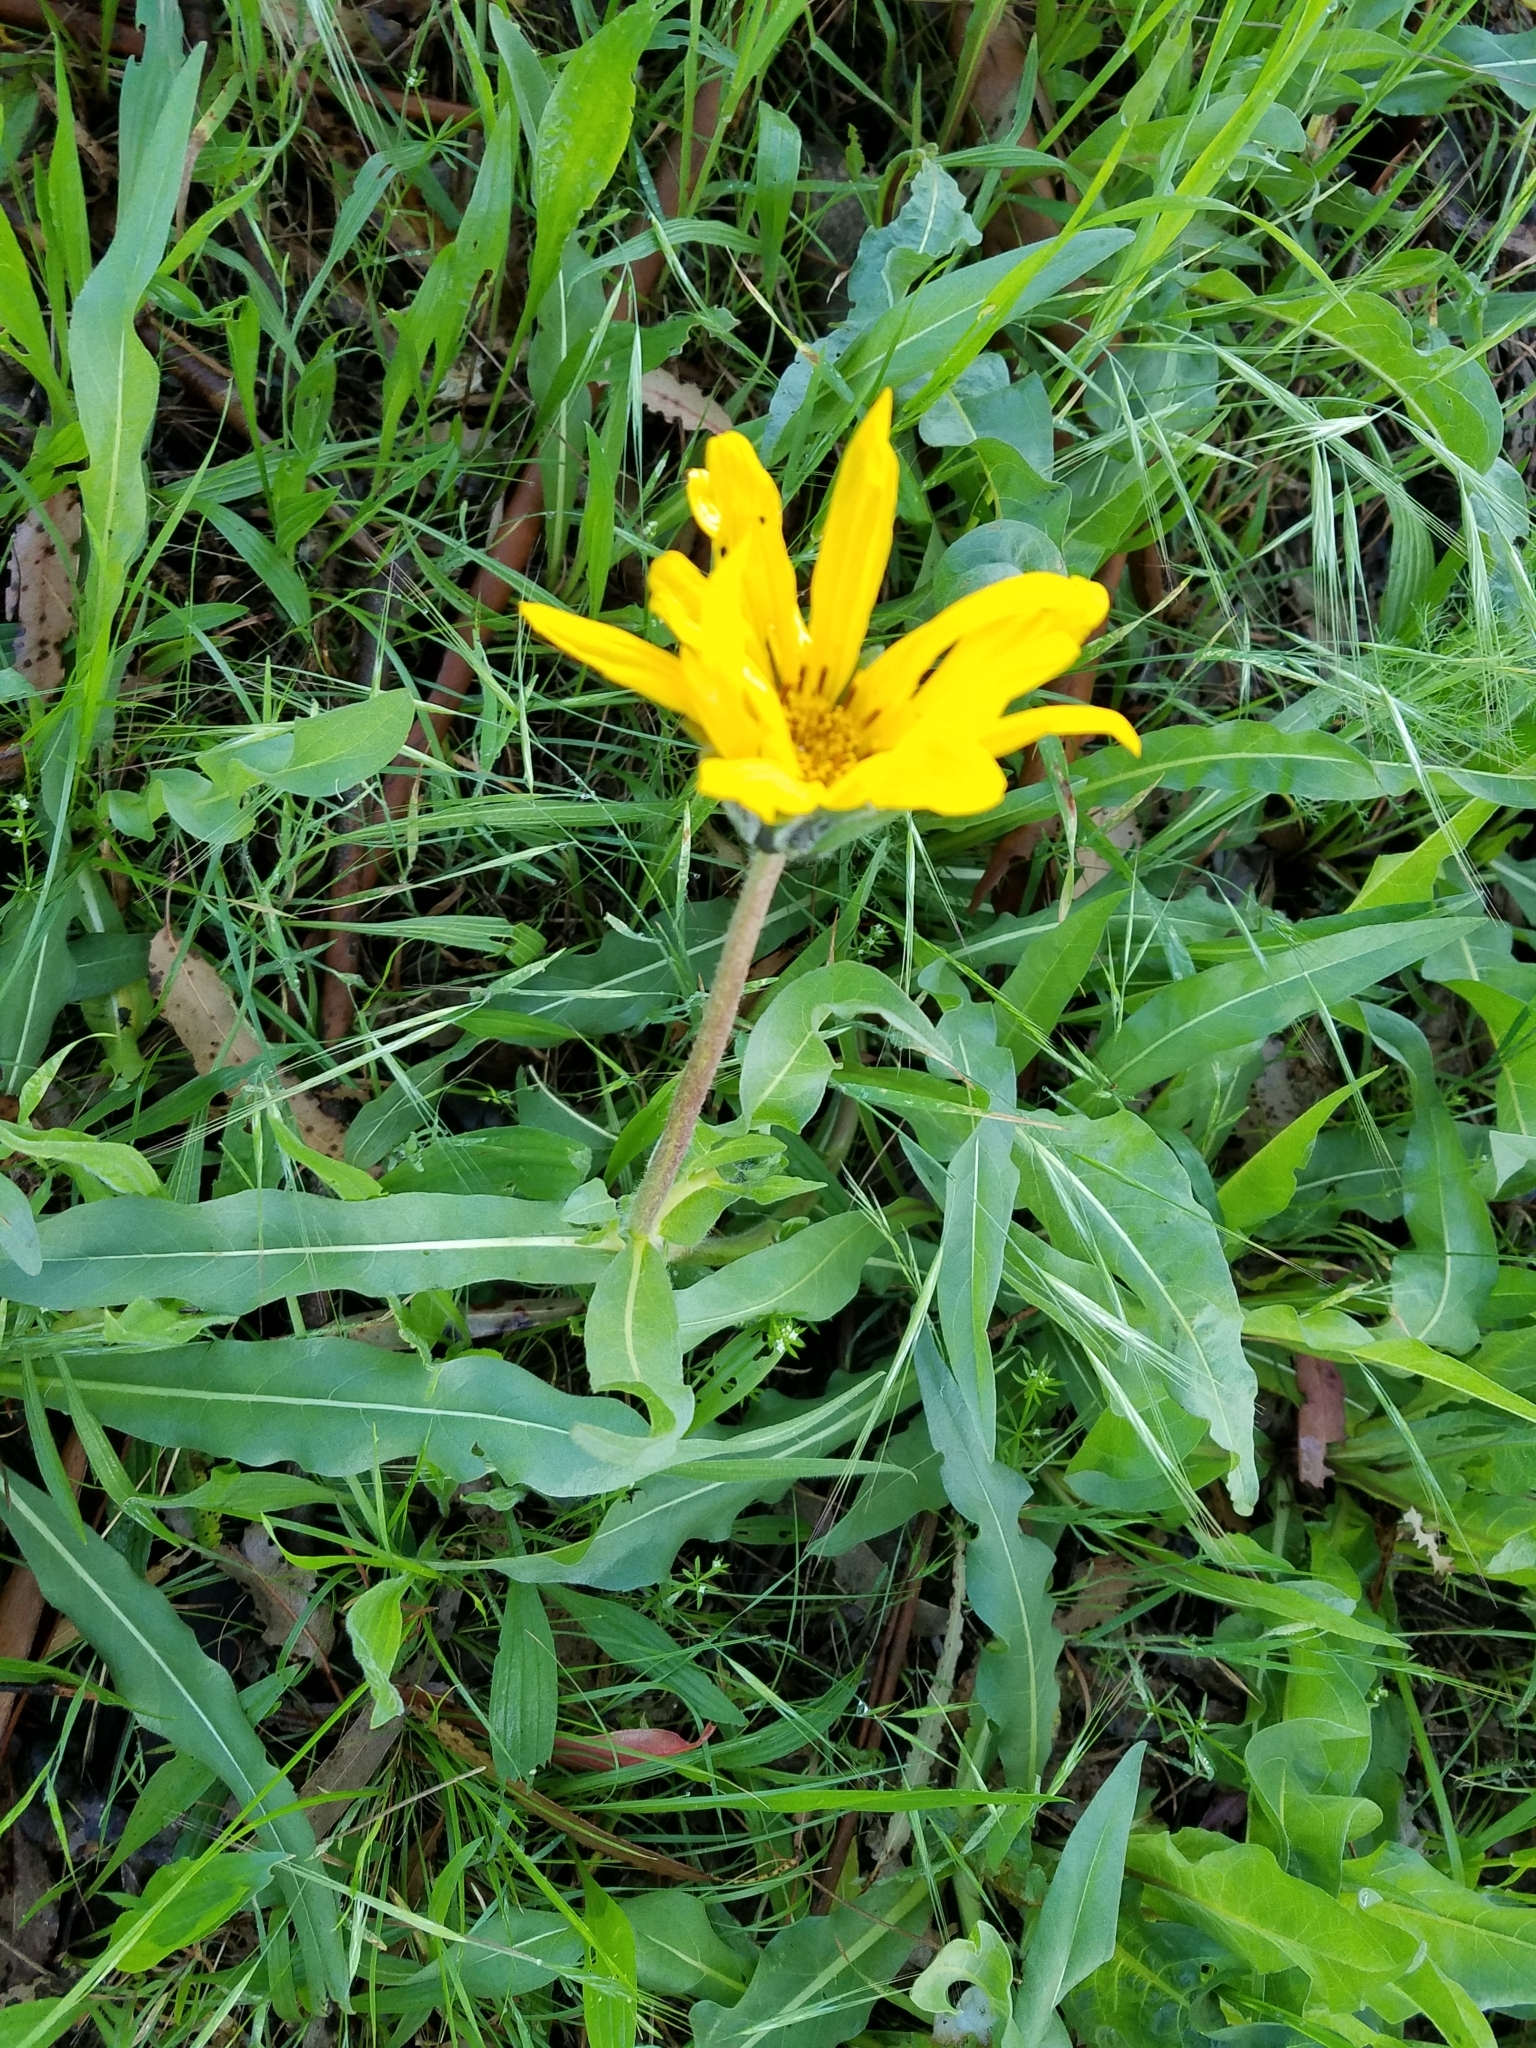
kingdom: Plantae
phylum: Tracheophyta
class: Magnoliopsida
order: Asterales
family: Asteraceae
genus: Wyethia
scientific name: Wyethia angustifolia
